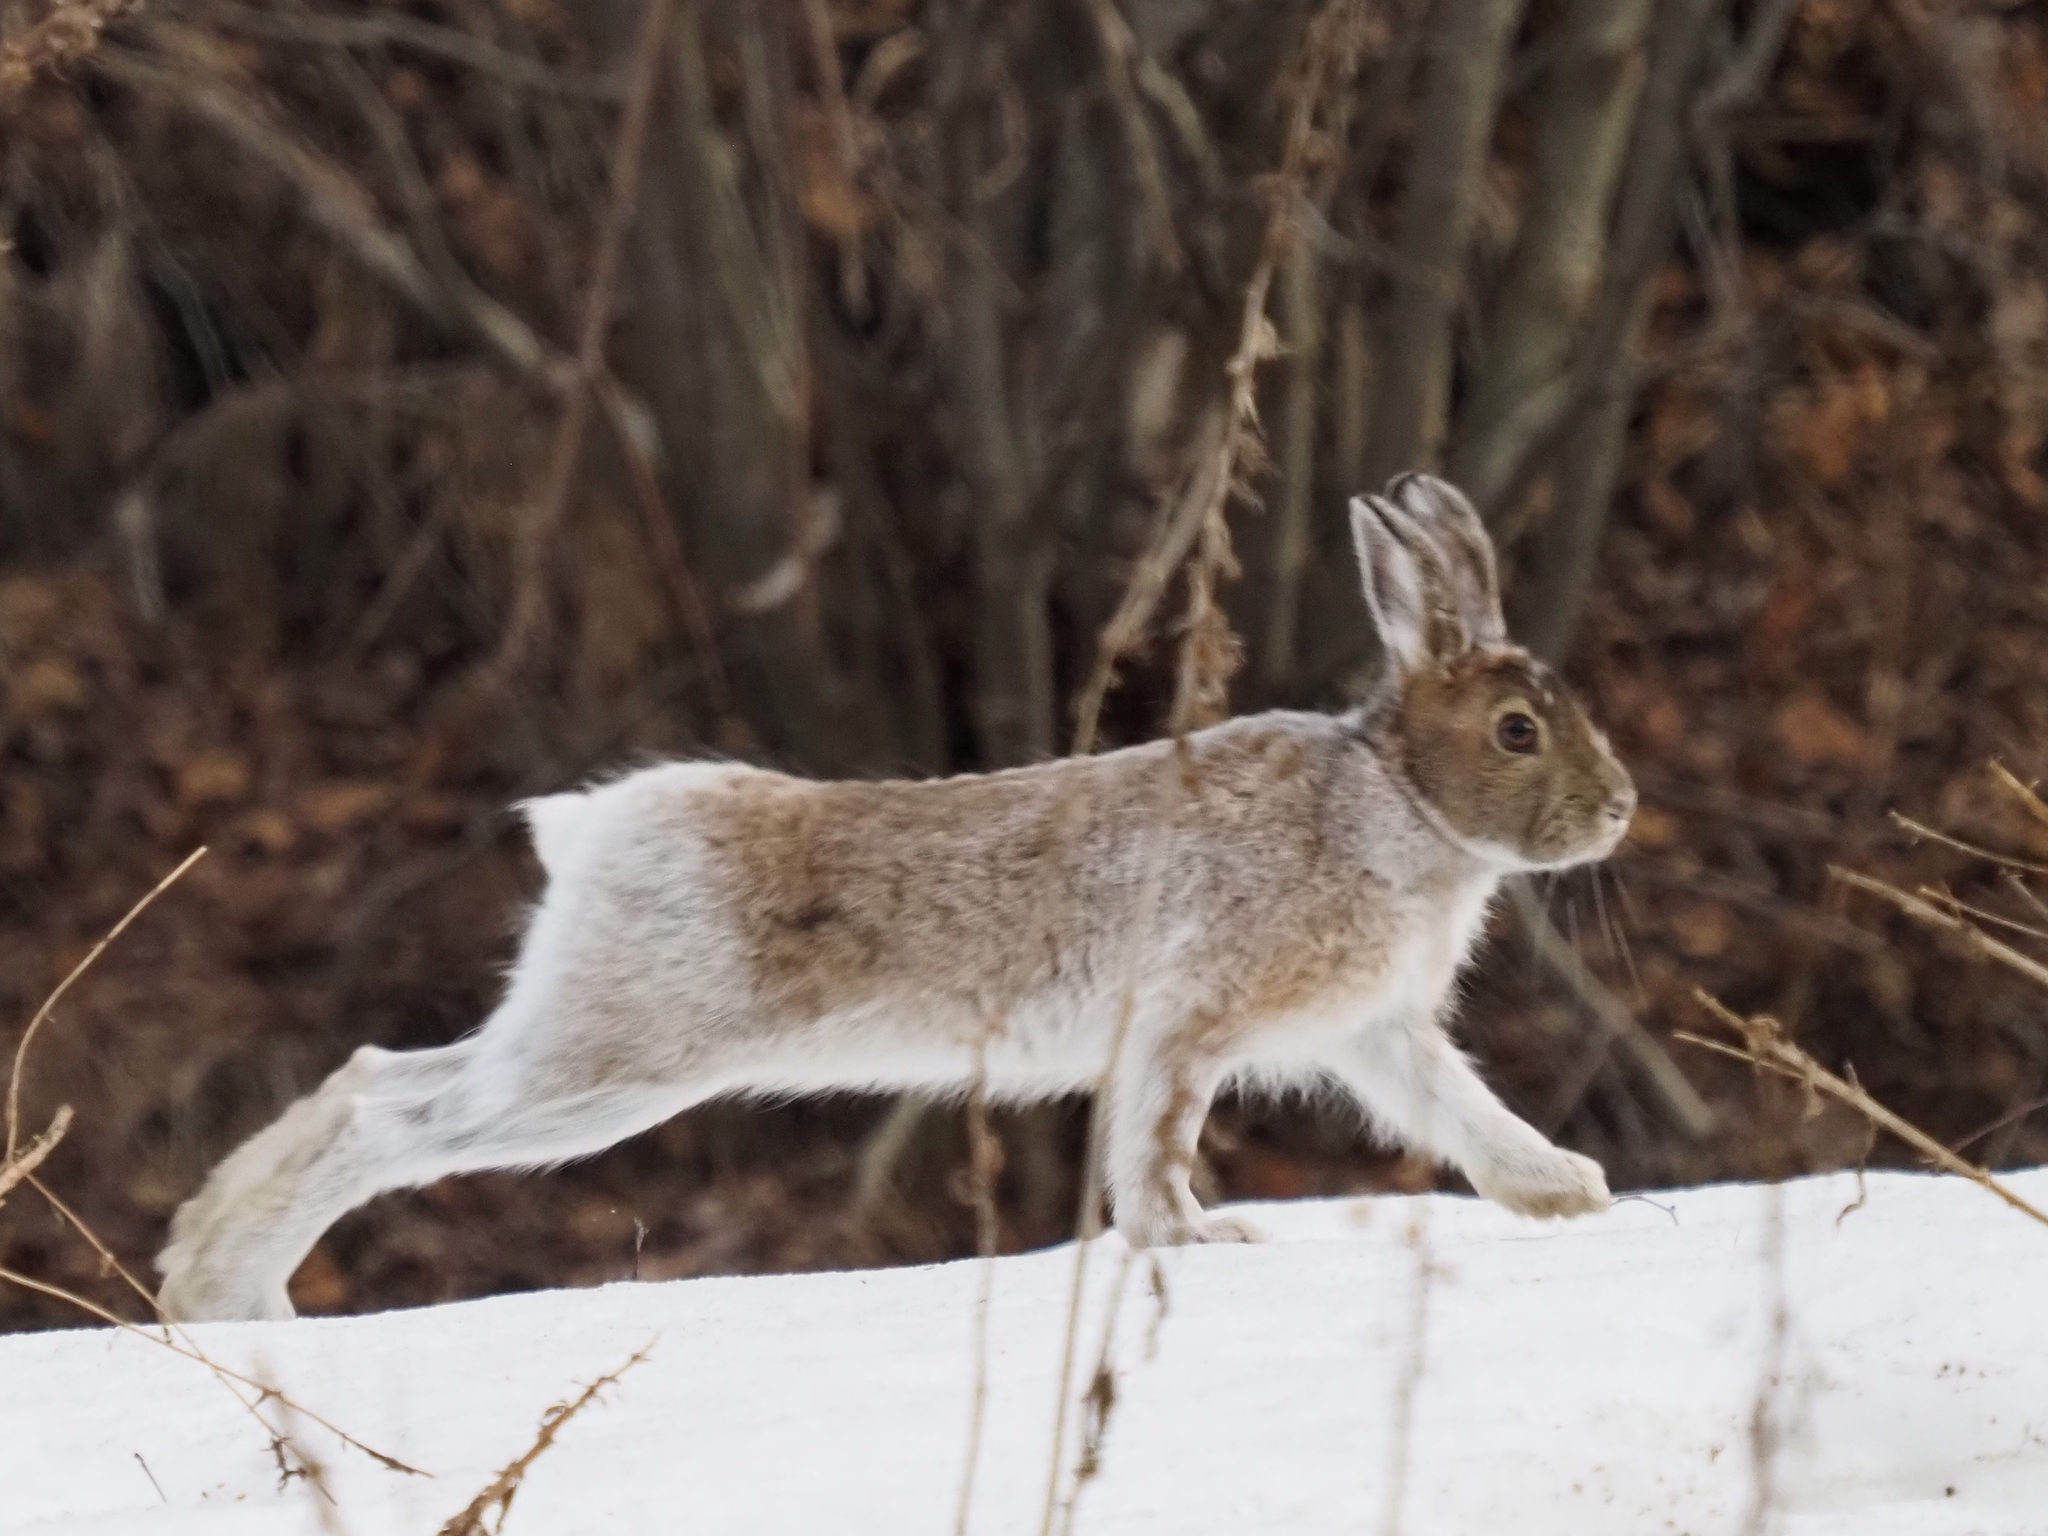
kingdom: Animalia
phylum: Chordata
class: Mammalia
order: Lagomorpha
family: Leporidae
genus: Lepus
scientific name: Lepus americanus
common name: Snowshoe hare
